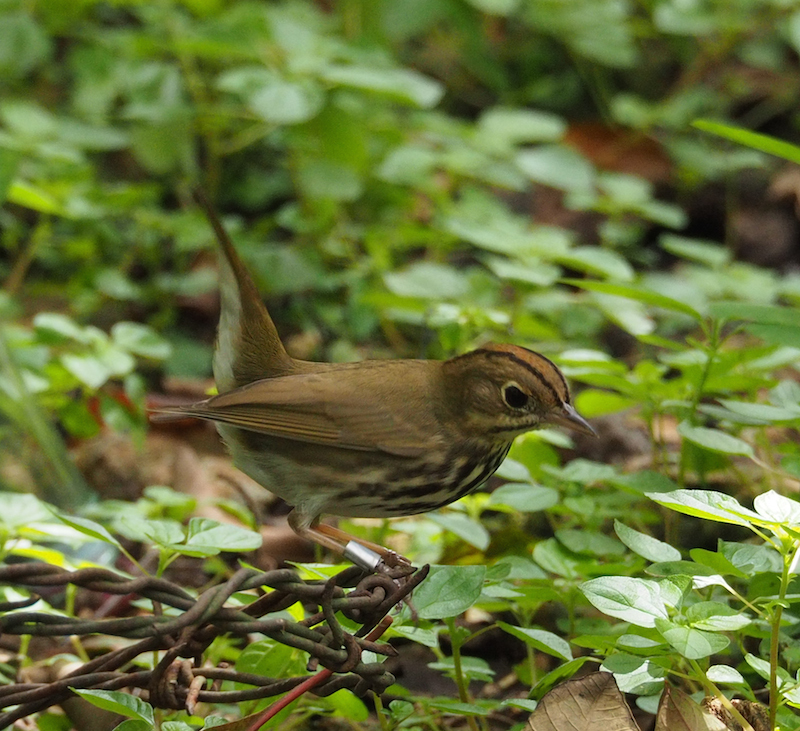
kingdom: Animalia
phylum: Chordata
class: Aves
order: Passeriformes
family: Parulidae
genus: Seiurus
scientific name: Seiurus aurocapilla
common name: Ovenbird
